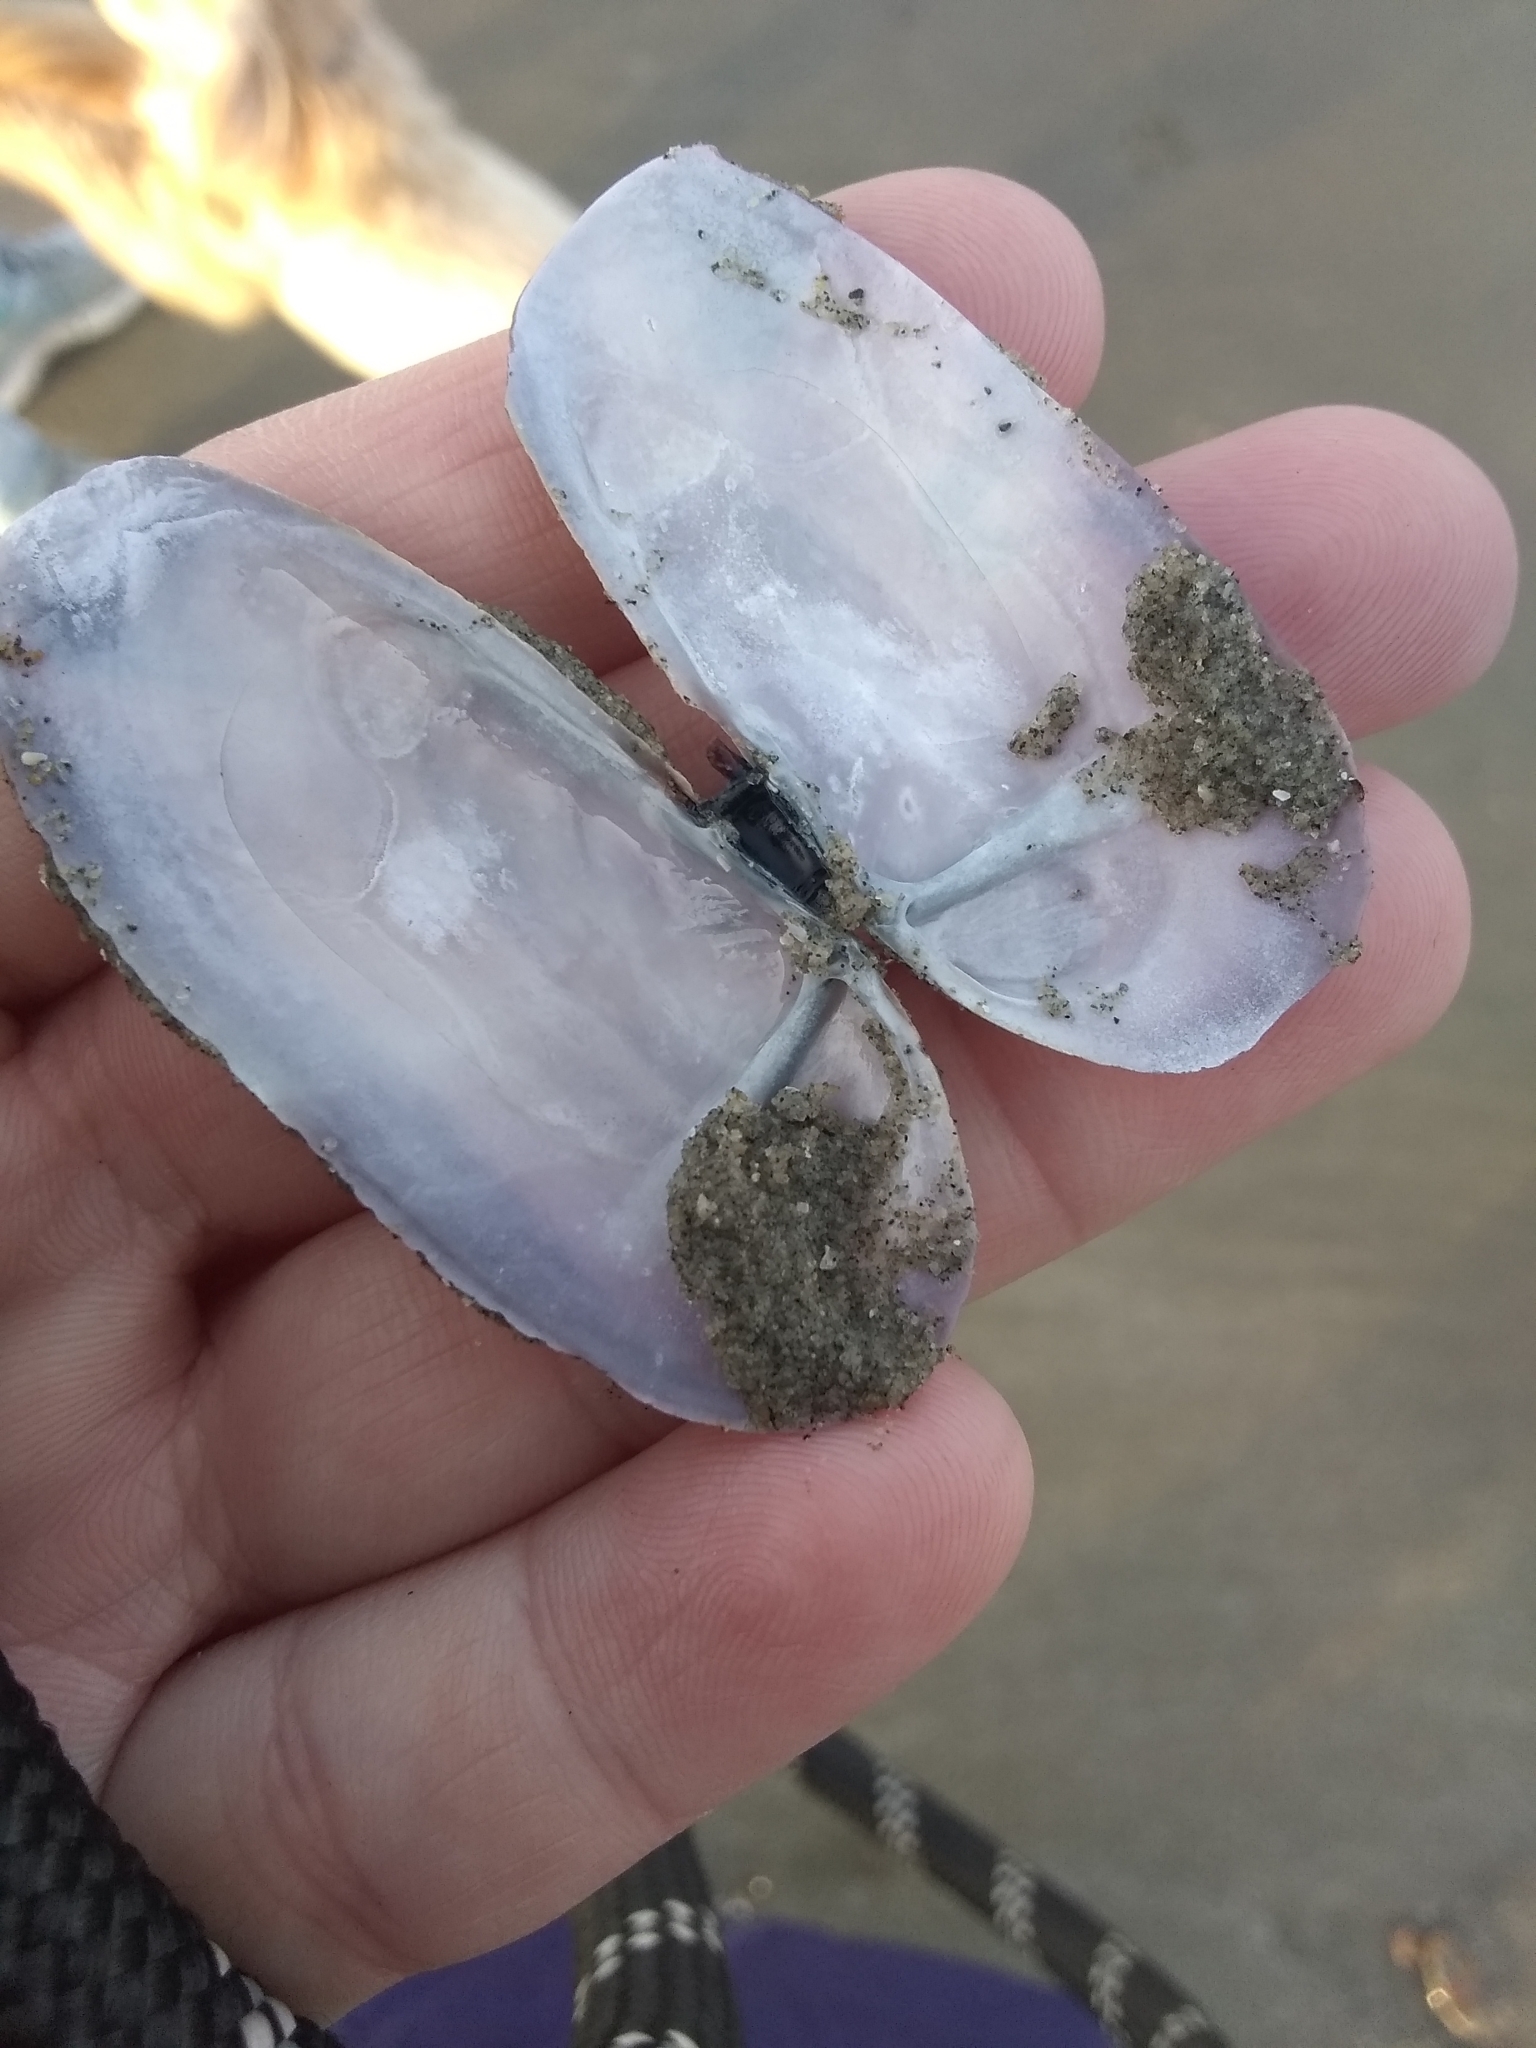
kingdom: Animalia
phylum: Mollusca
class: Bivalvia
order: Adapedonta
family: Pharidae
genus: Siliqua
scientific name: Siliqua costata
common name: Atlantic razor
